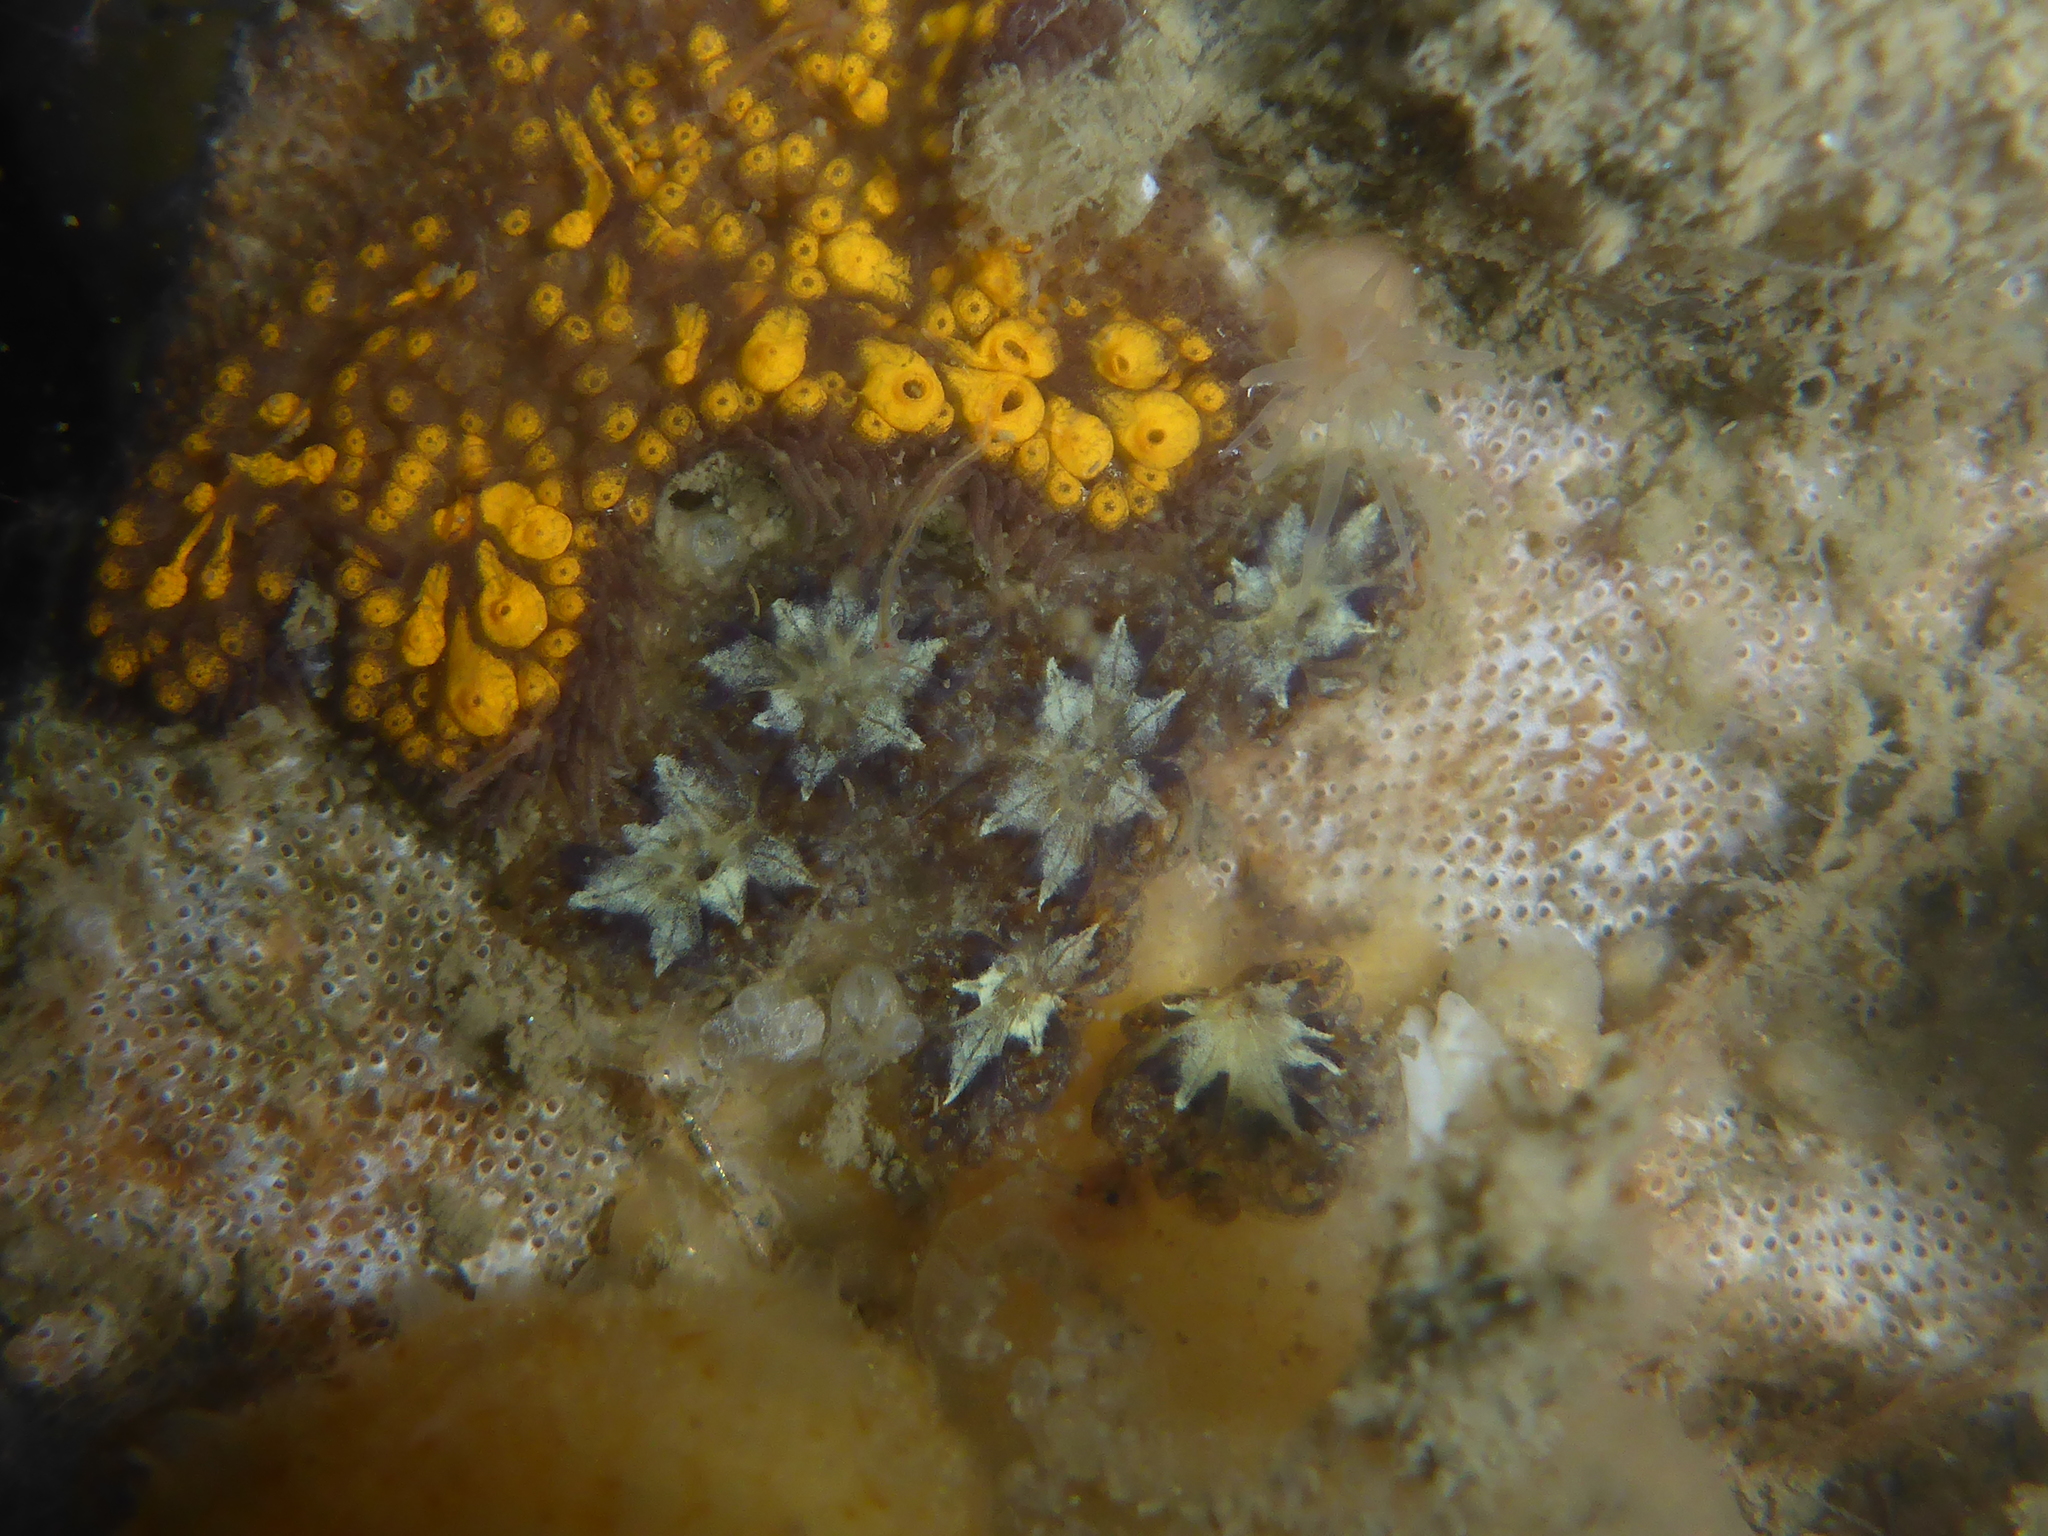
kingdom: Animalia
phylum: Chordata
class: Ascidiacea
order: Stolidobranchia
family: Styelidae
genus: Botryllus
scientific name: Botryllus schlosseri
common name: Golden star tunicate
